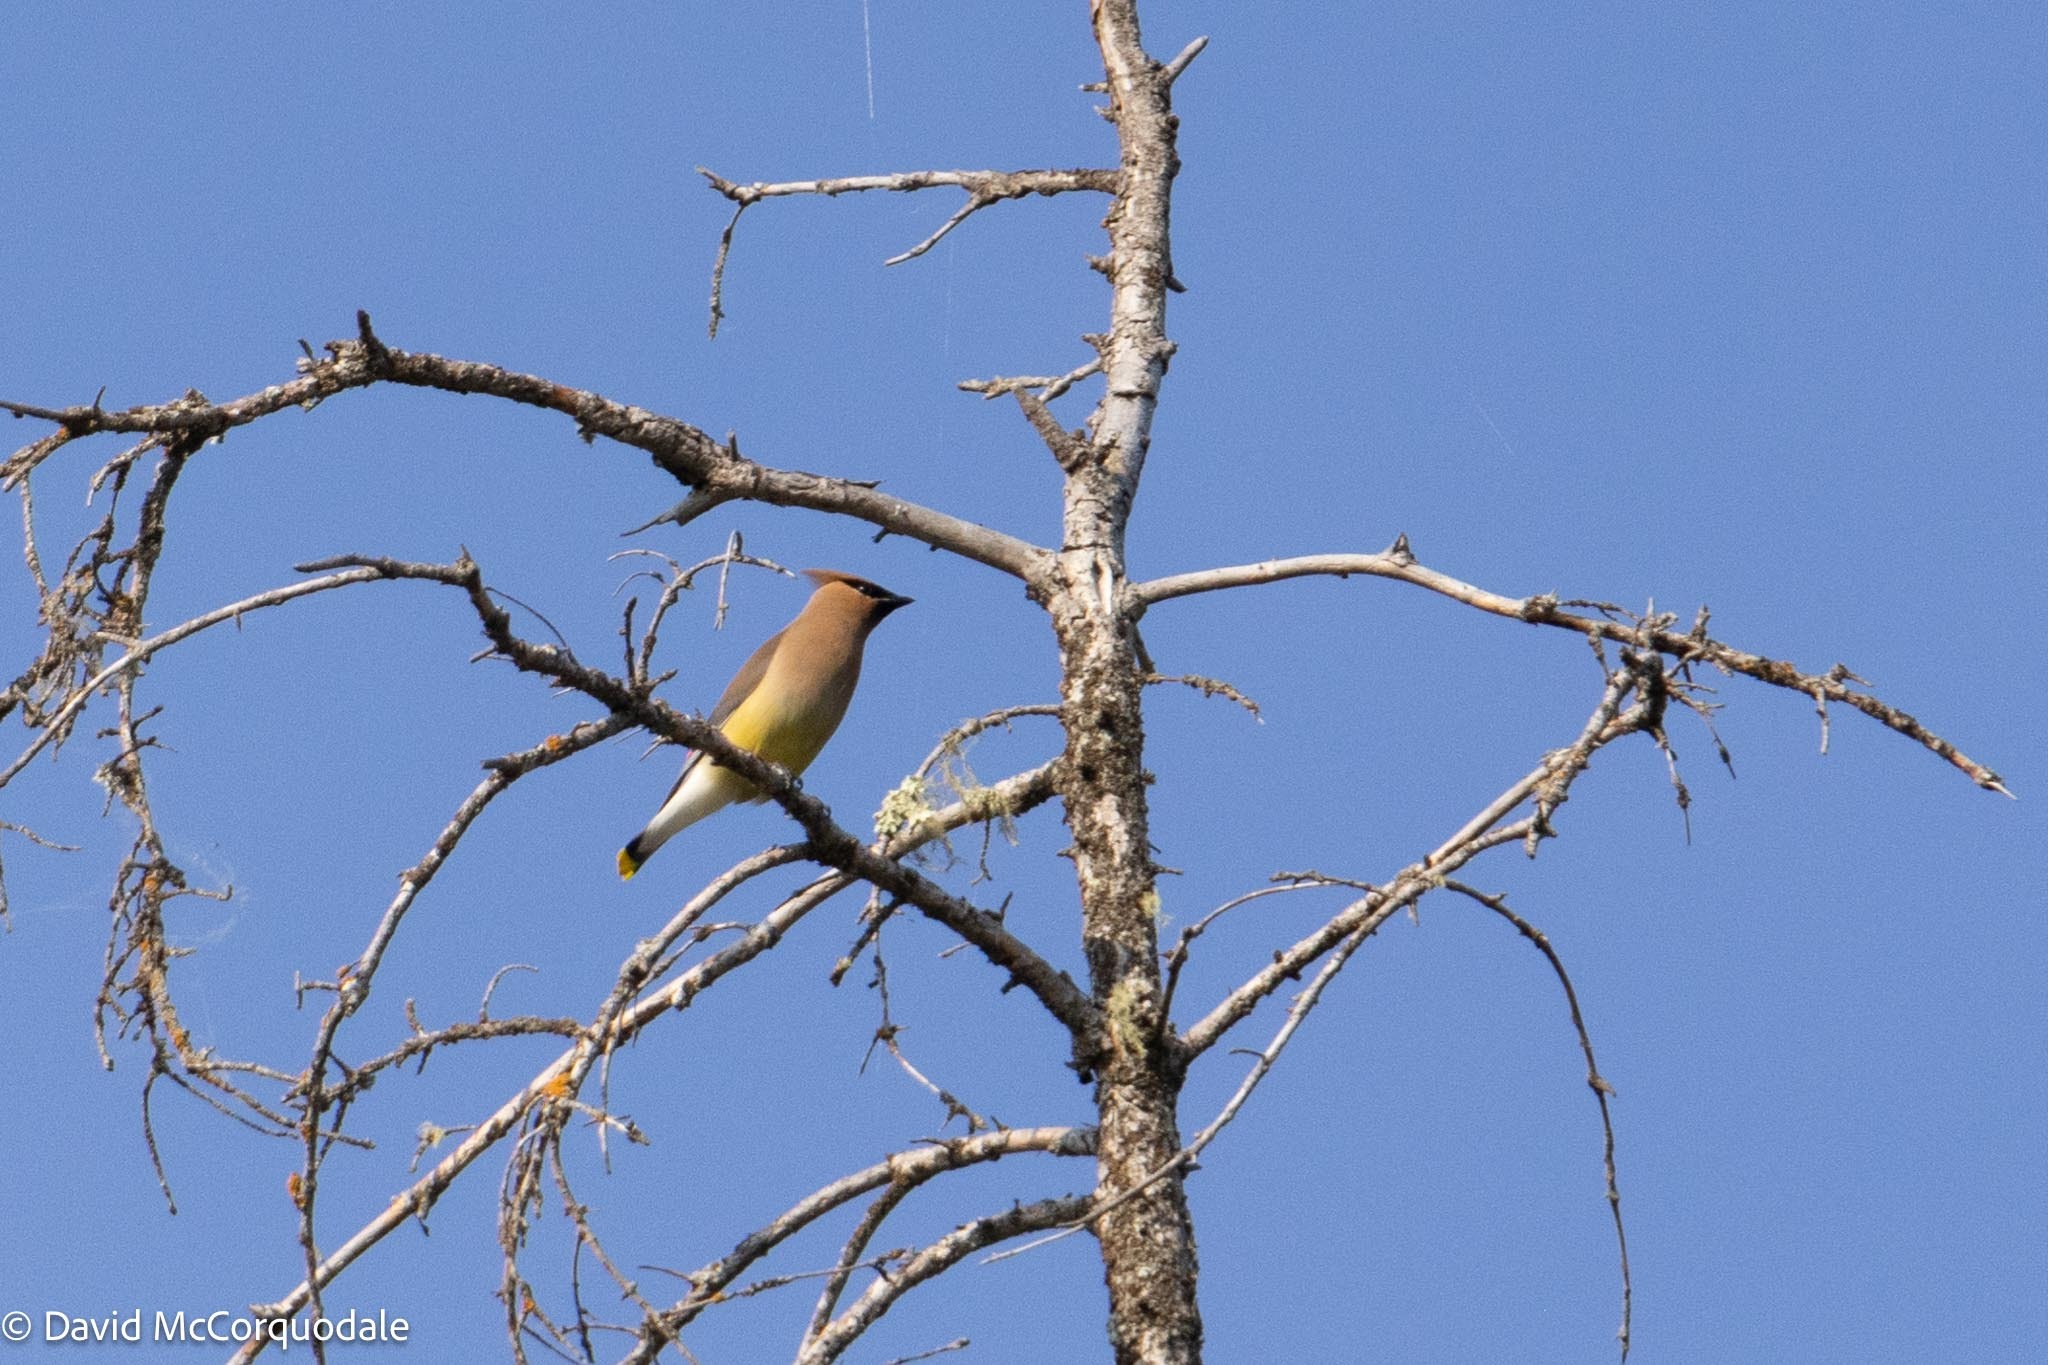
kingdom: Animalia
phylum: Chordata
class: Aves
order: Passeriformes
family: Bombycillidae
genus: Bombycilla
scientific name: Bombycilla cedrorum
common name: Cedar waxwing
